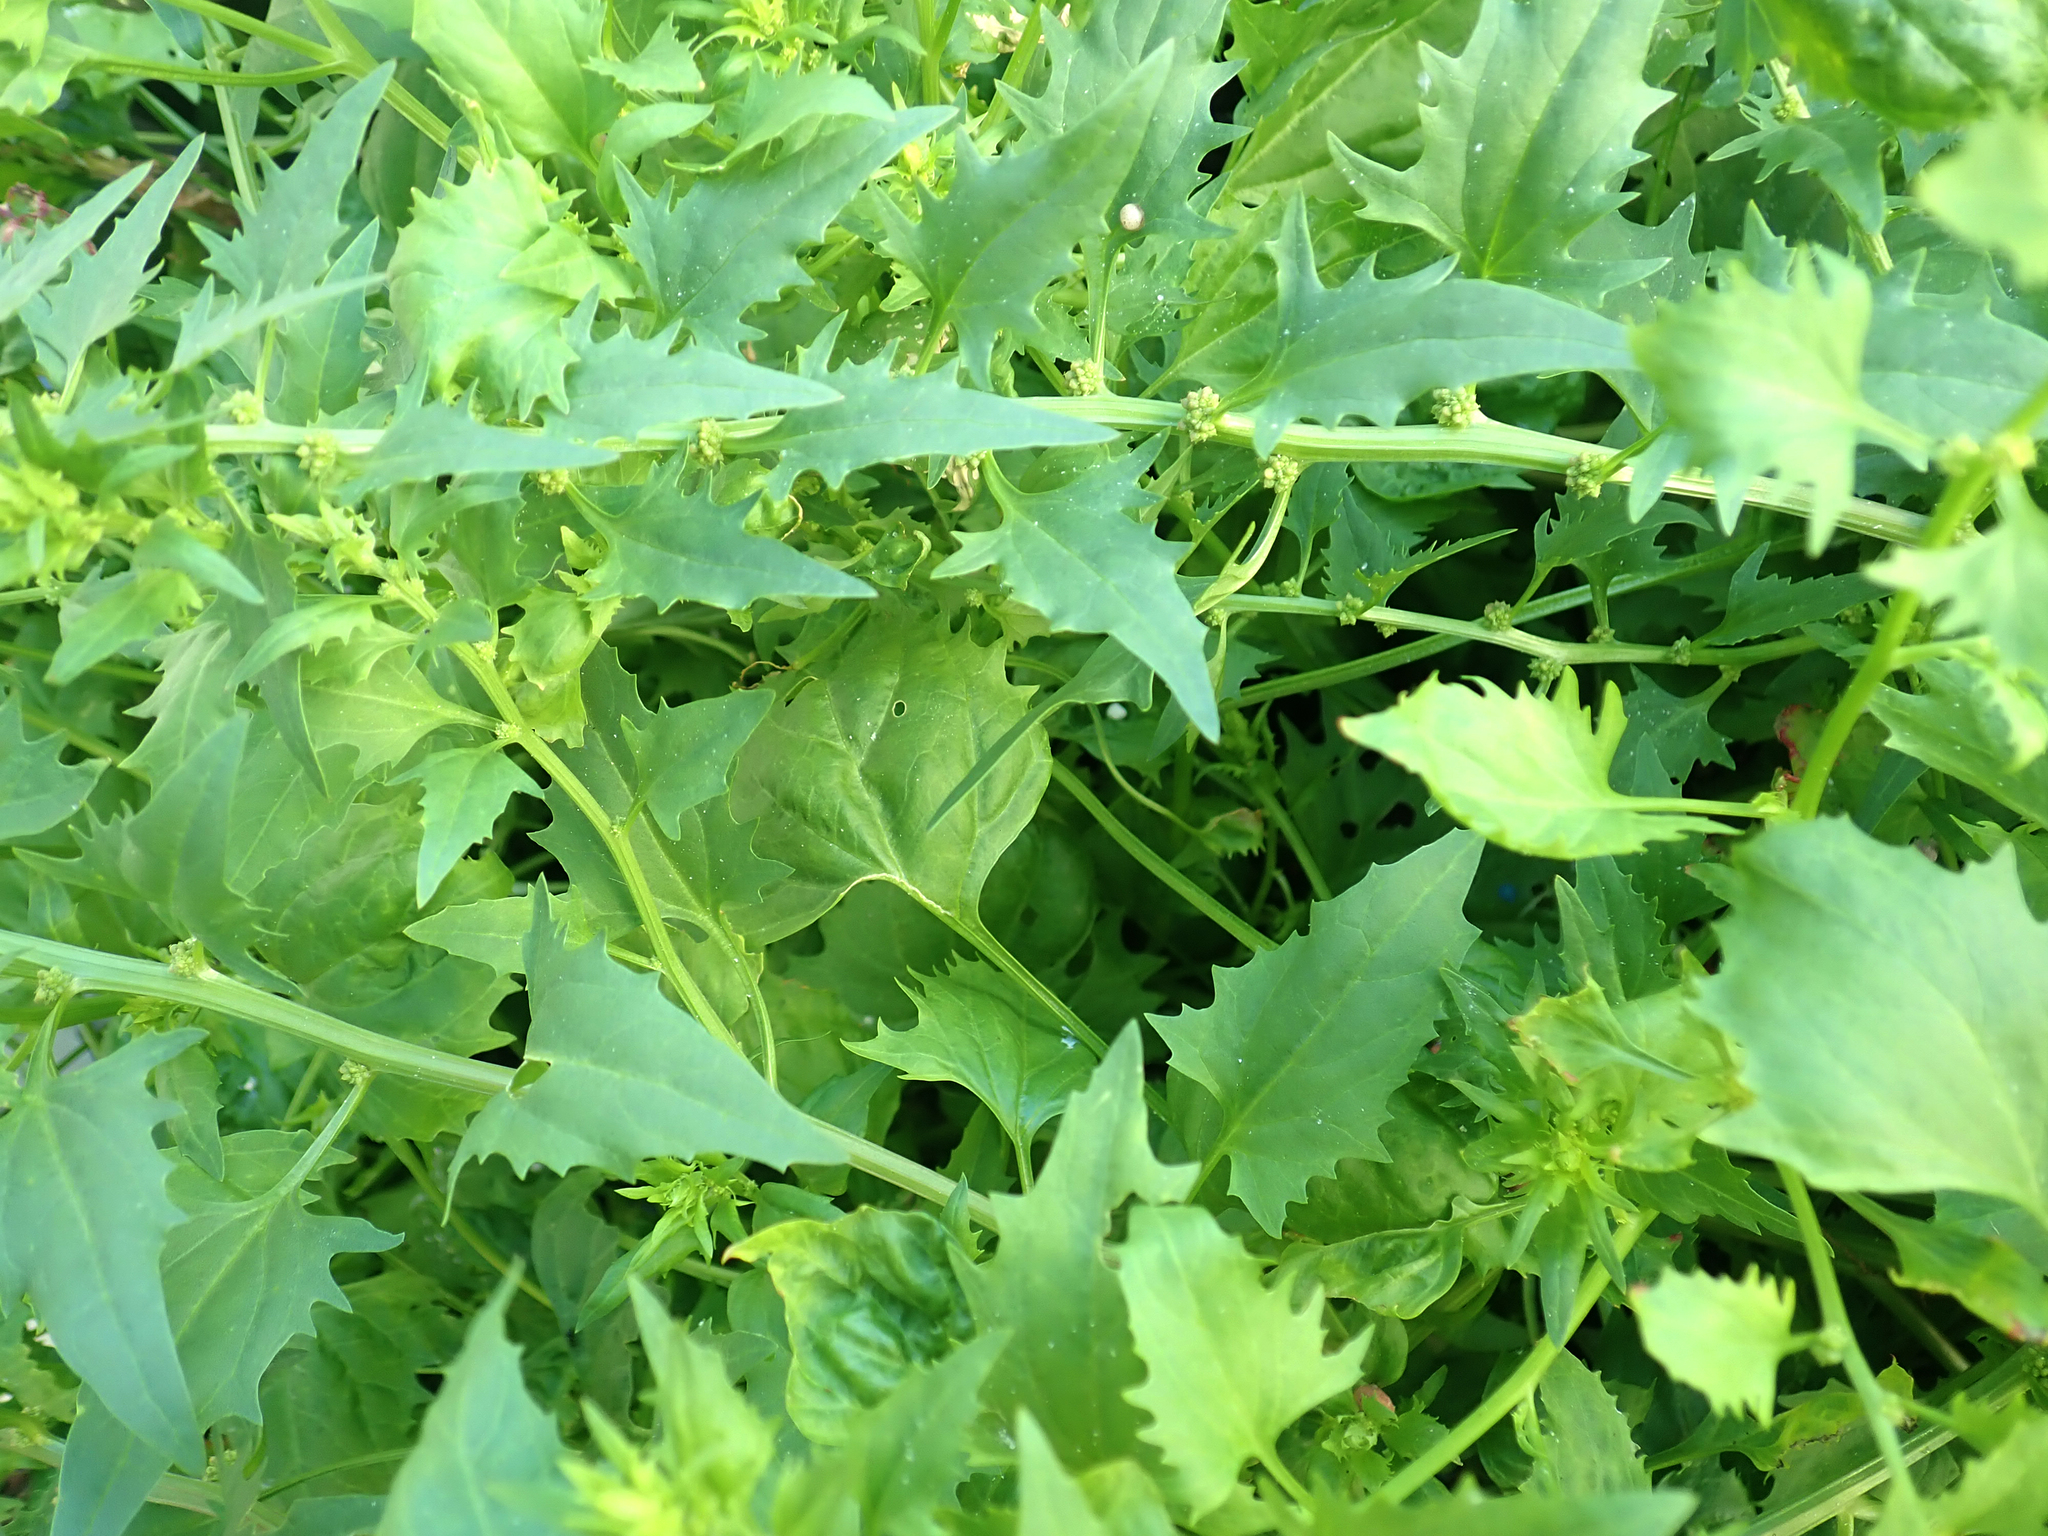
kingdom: Plantae
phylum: Tracheophyta
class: Magnoliopsida
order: Caryophyllales
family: Amaranthaceae
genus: Blitum
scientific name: Blitum virgatum
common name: Strawberry goosefoot
